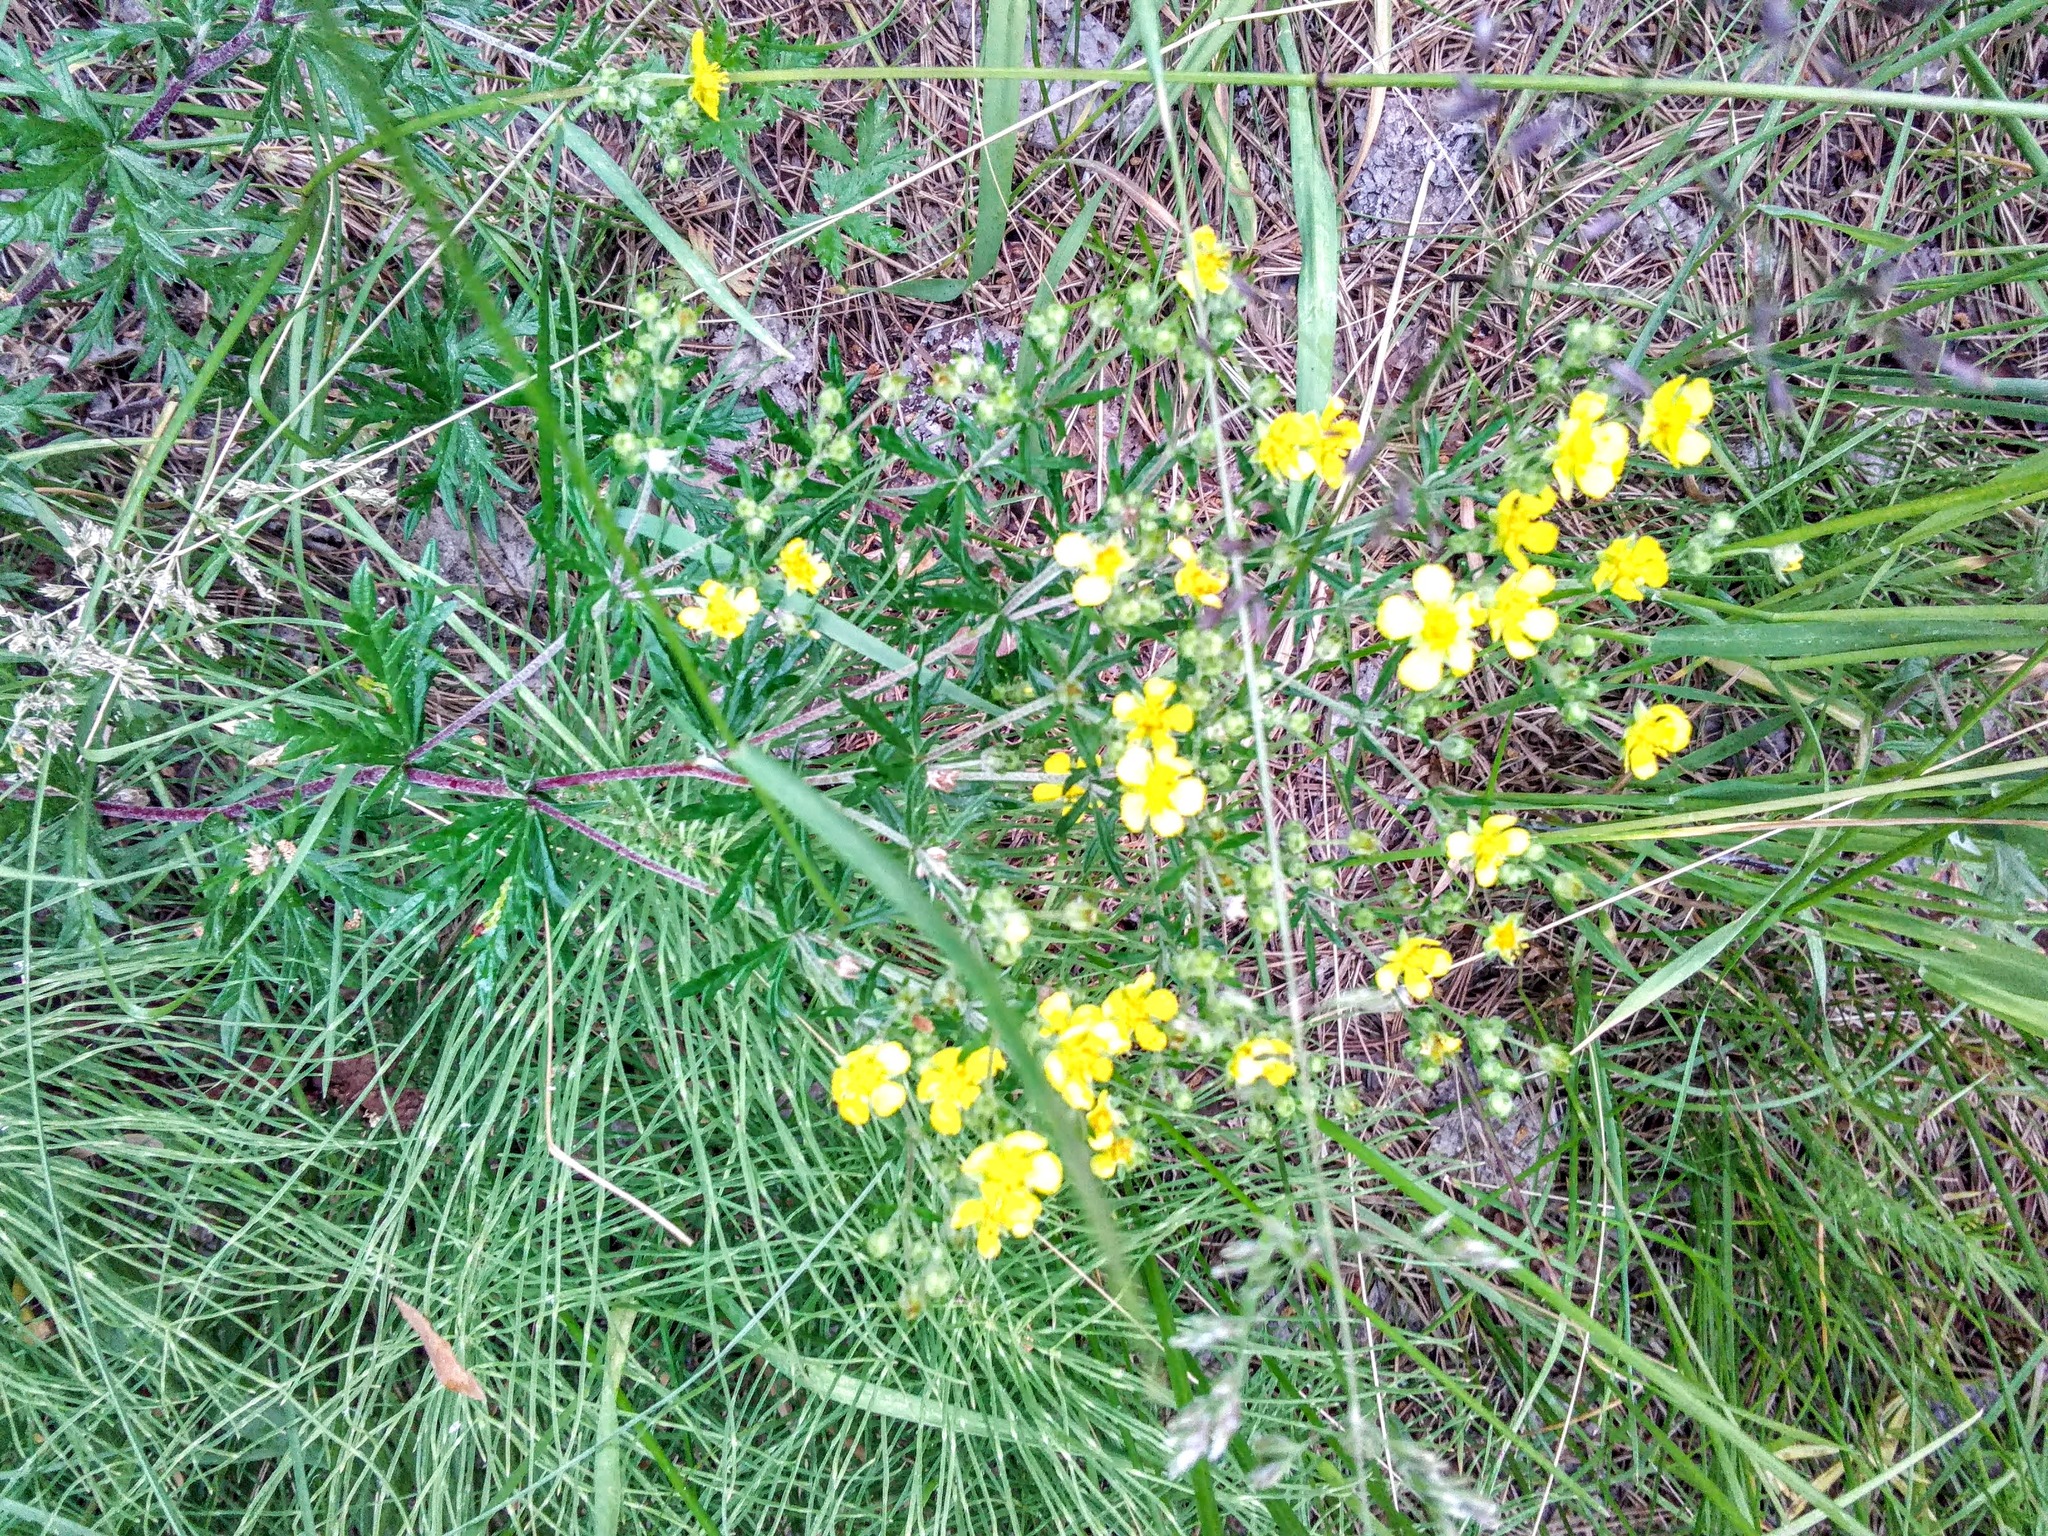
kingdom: Plantae
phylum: Tracheophyta
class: Magnoliopsida
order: Rosales
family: Rosaceae
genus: Potentilla
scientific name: Potentilla argentea
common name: Hoary cinquefoil
